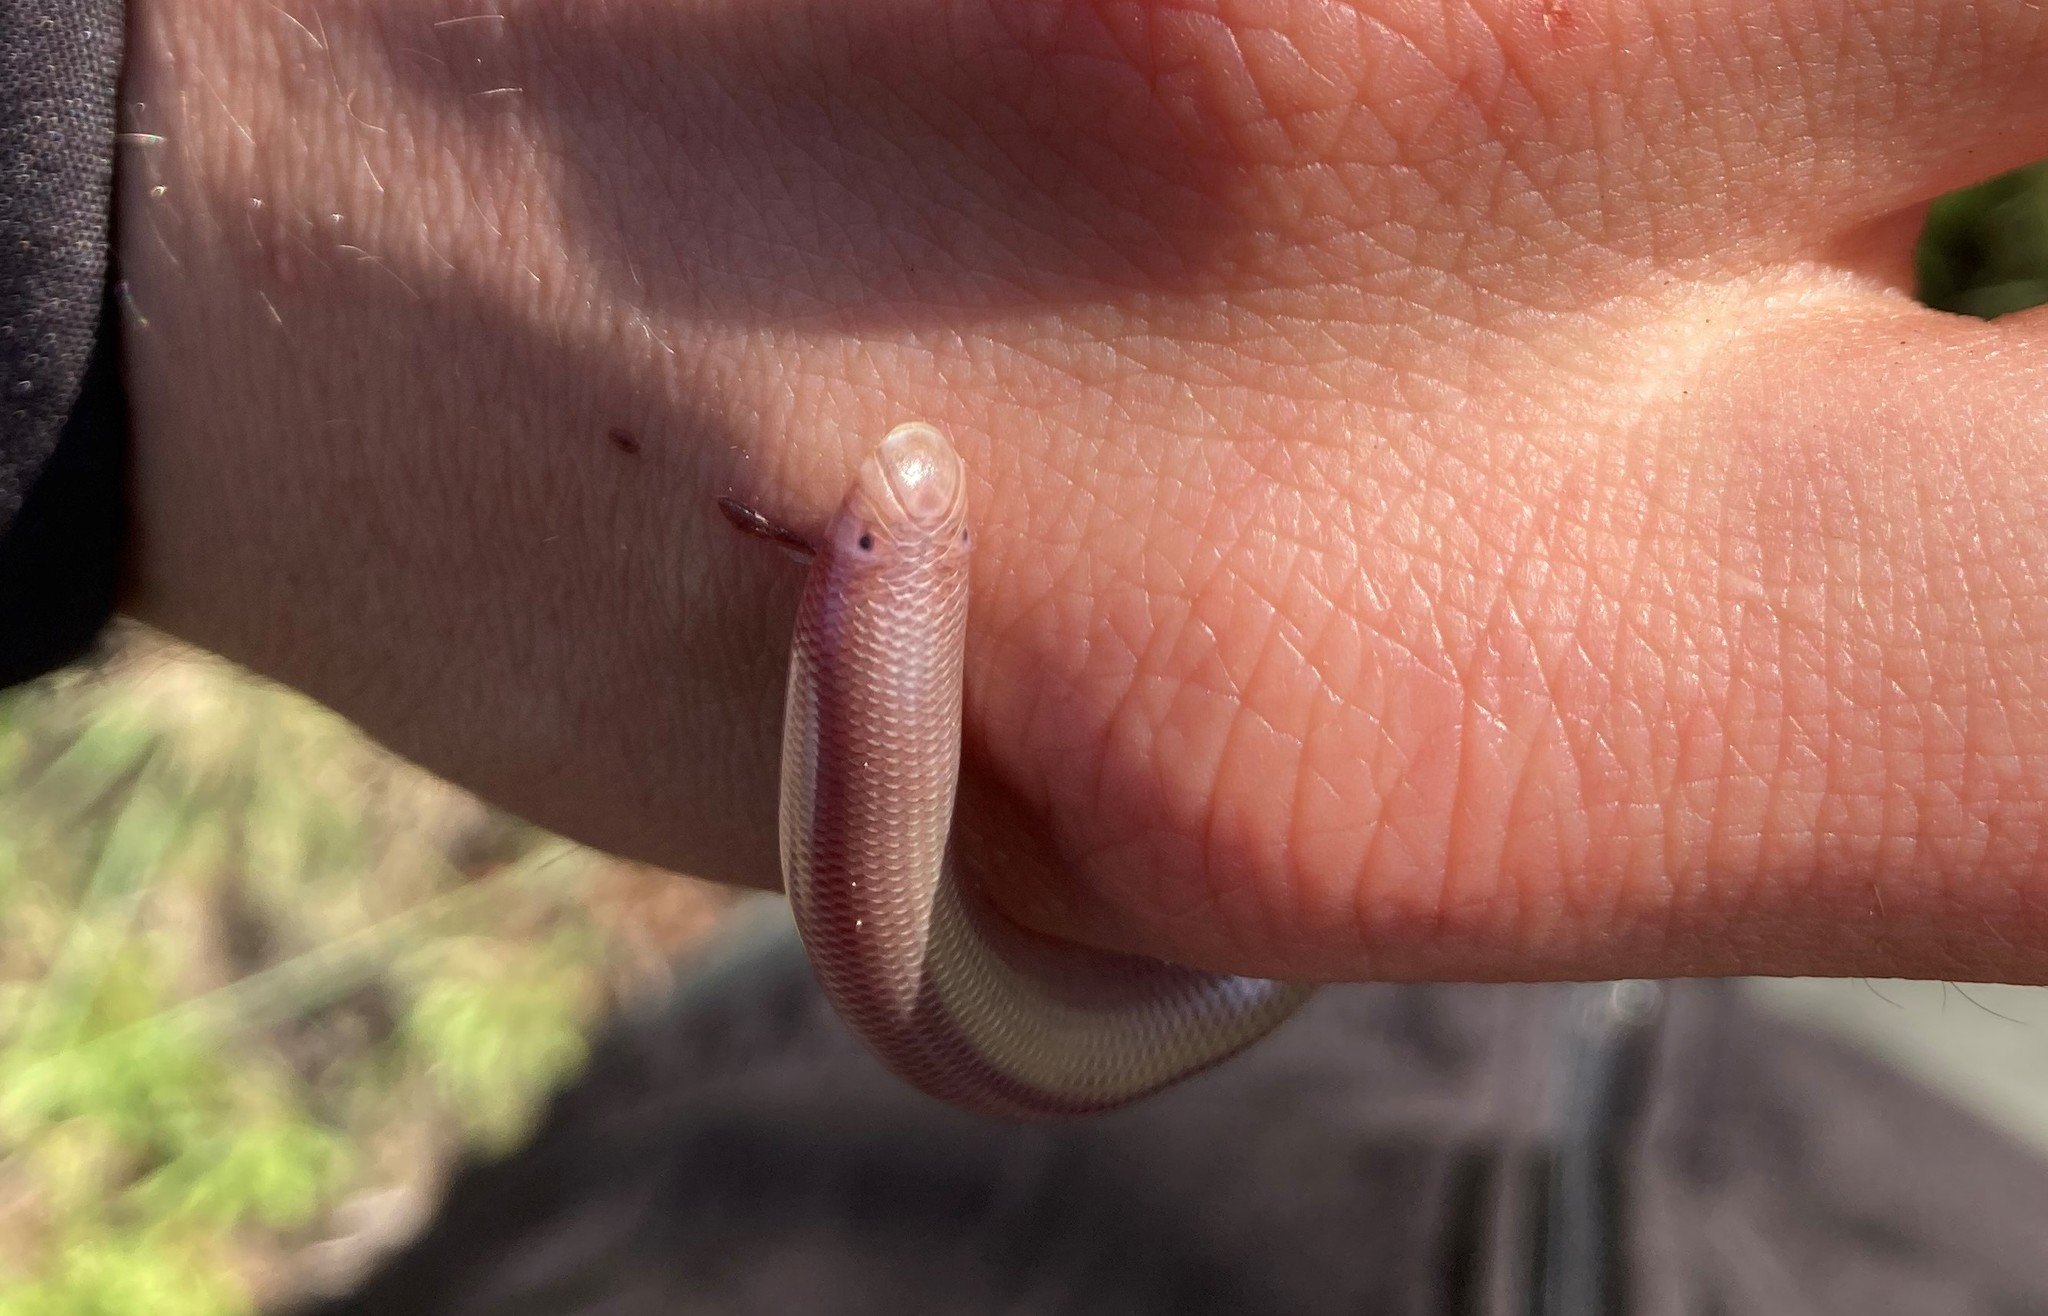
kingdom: Animalia
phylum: Chordata
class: Squamata
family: Typhlopidae
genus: Rhinotyphlops
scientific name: Rhinotyphlops lalandei
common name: Delalande's beaked blind snake
